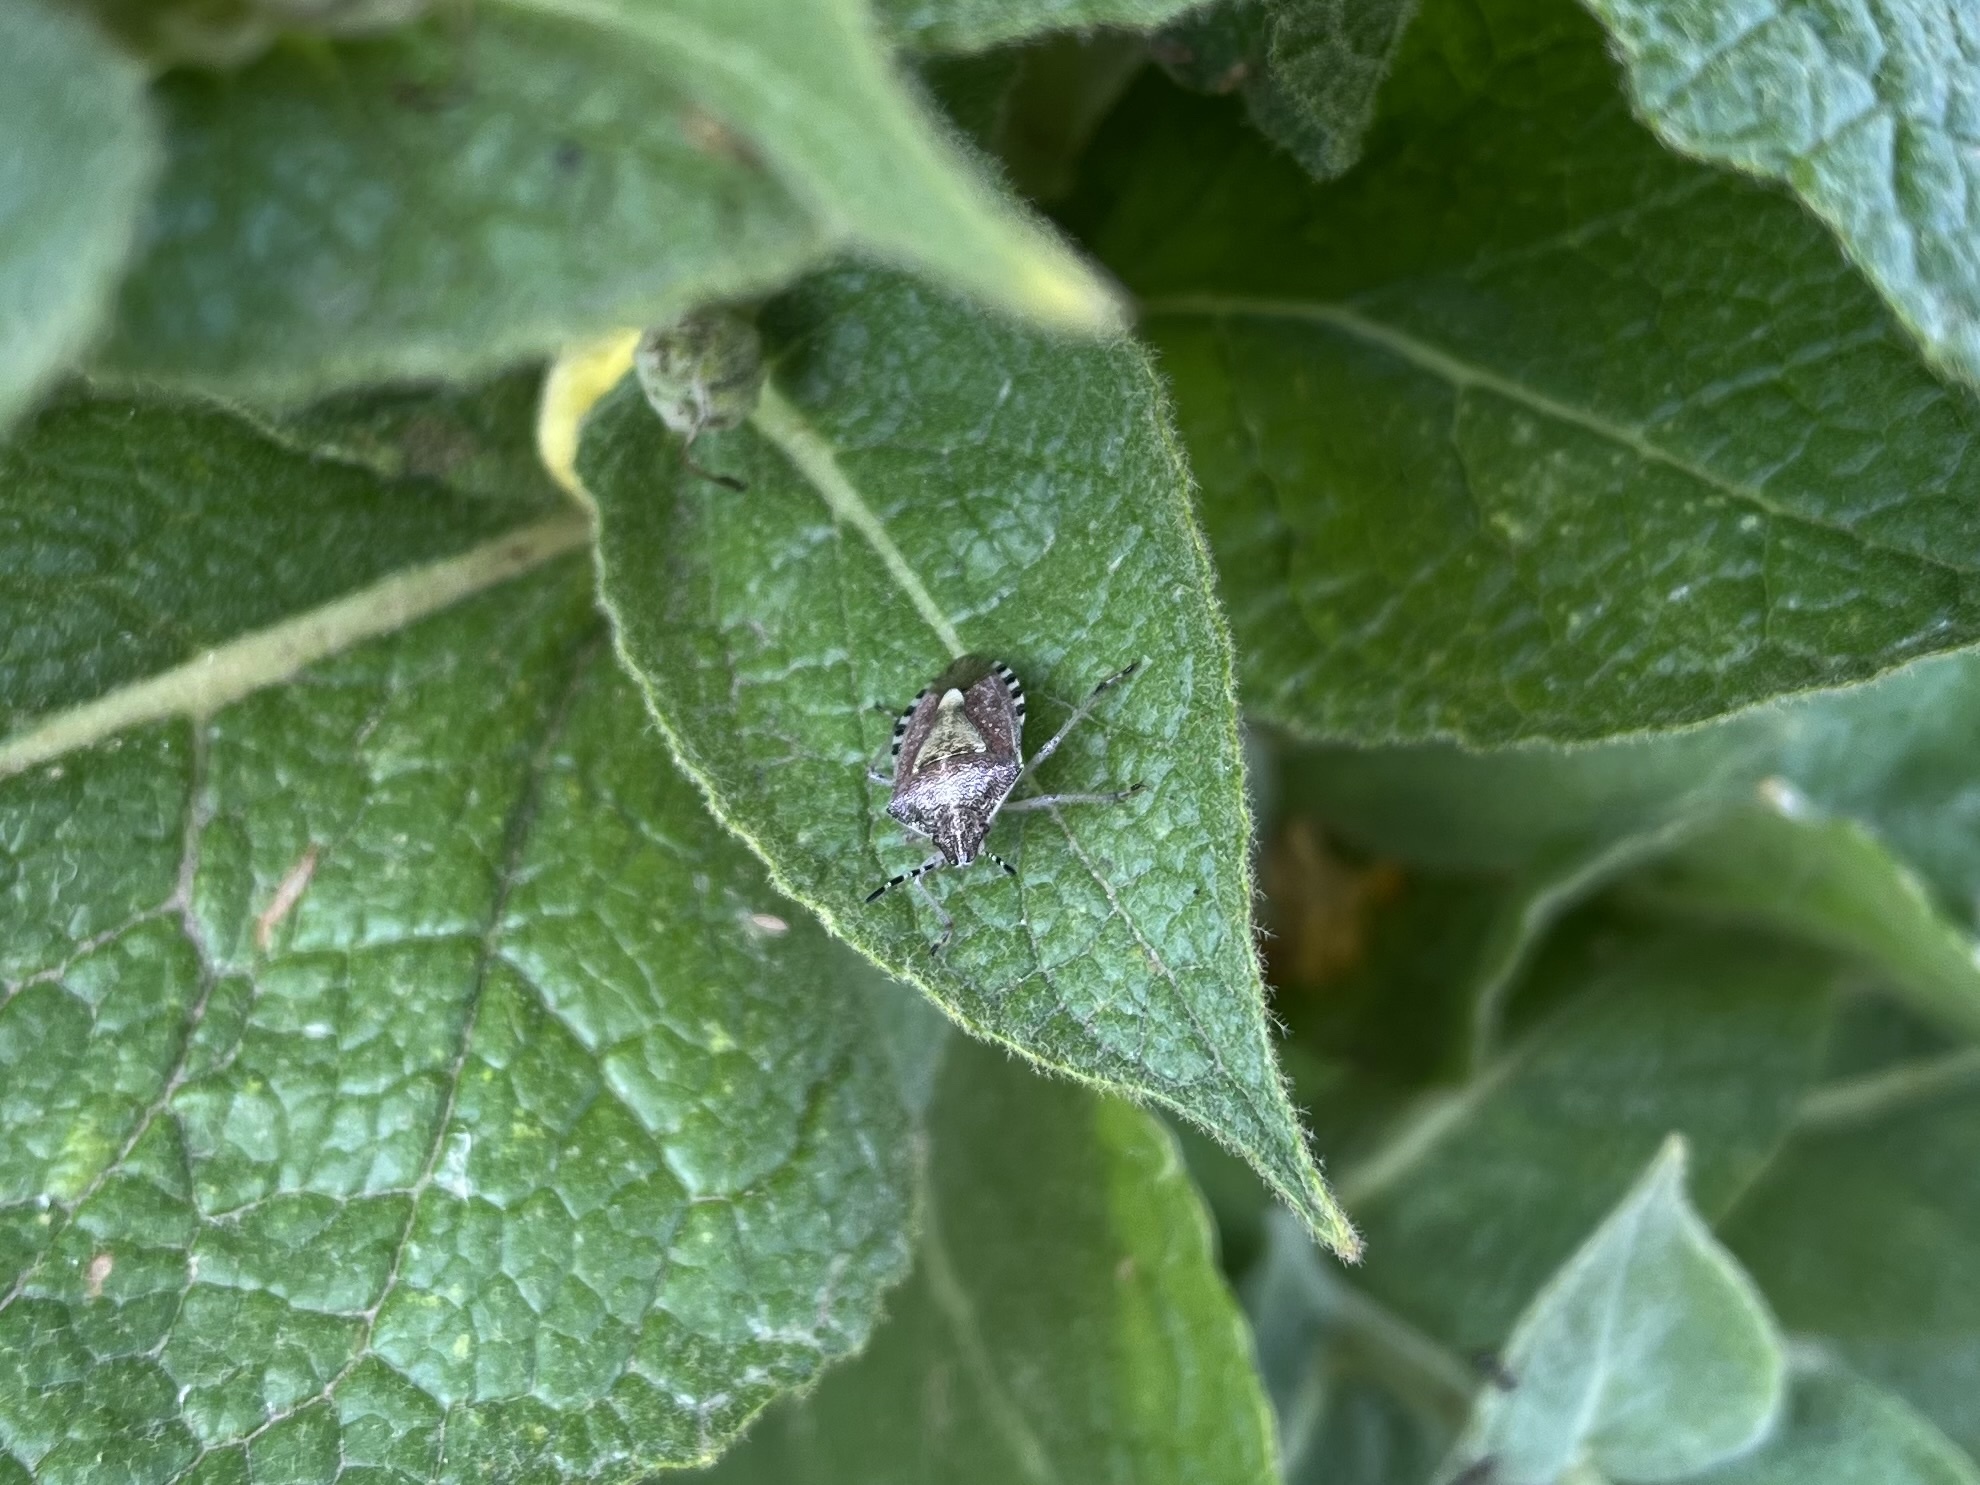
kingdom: Animalia
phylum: Arthropoda
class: Insecta
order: Hemiptera
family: Pentatomidae
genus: Dolycoris
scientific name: Dolycoris baccarum
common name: Sloe bug
